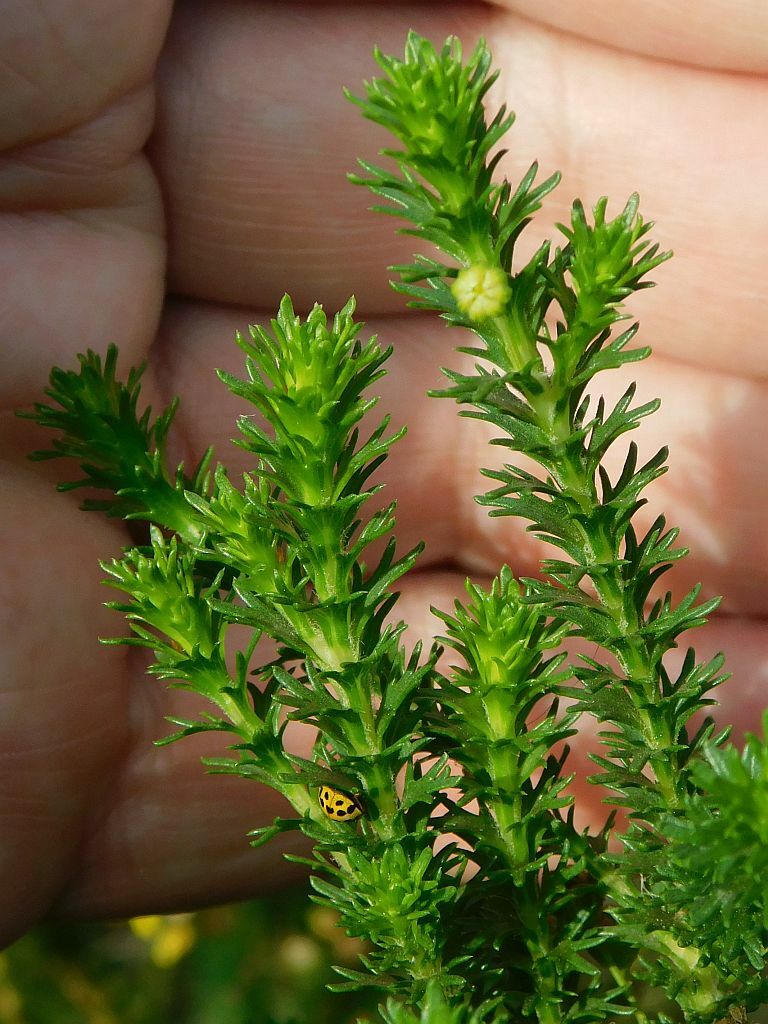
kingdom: Plantae
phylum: Tracheophyta
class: Magnoliopsida
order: Asterales
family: Asteraceae
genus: Euryops
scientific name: Euryops virgineus
